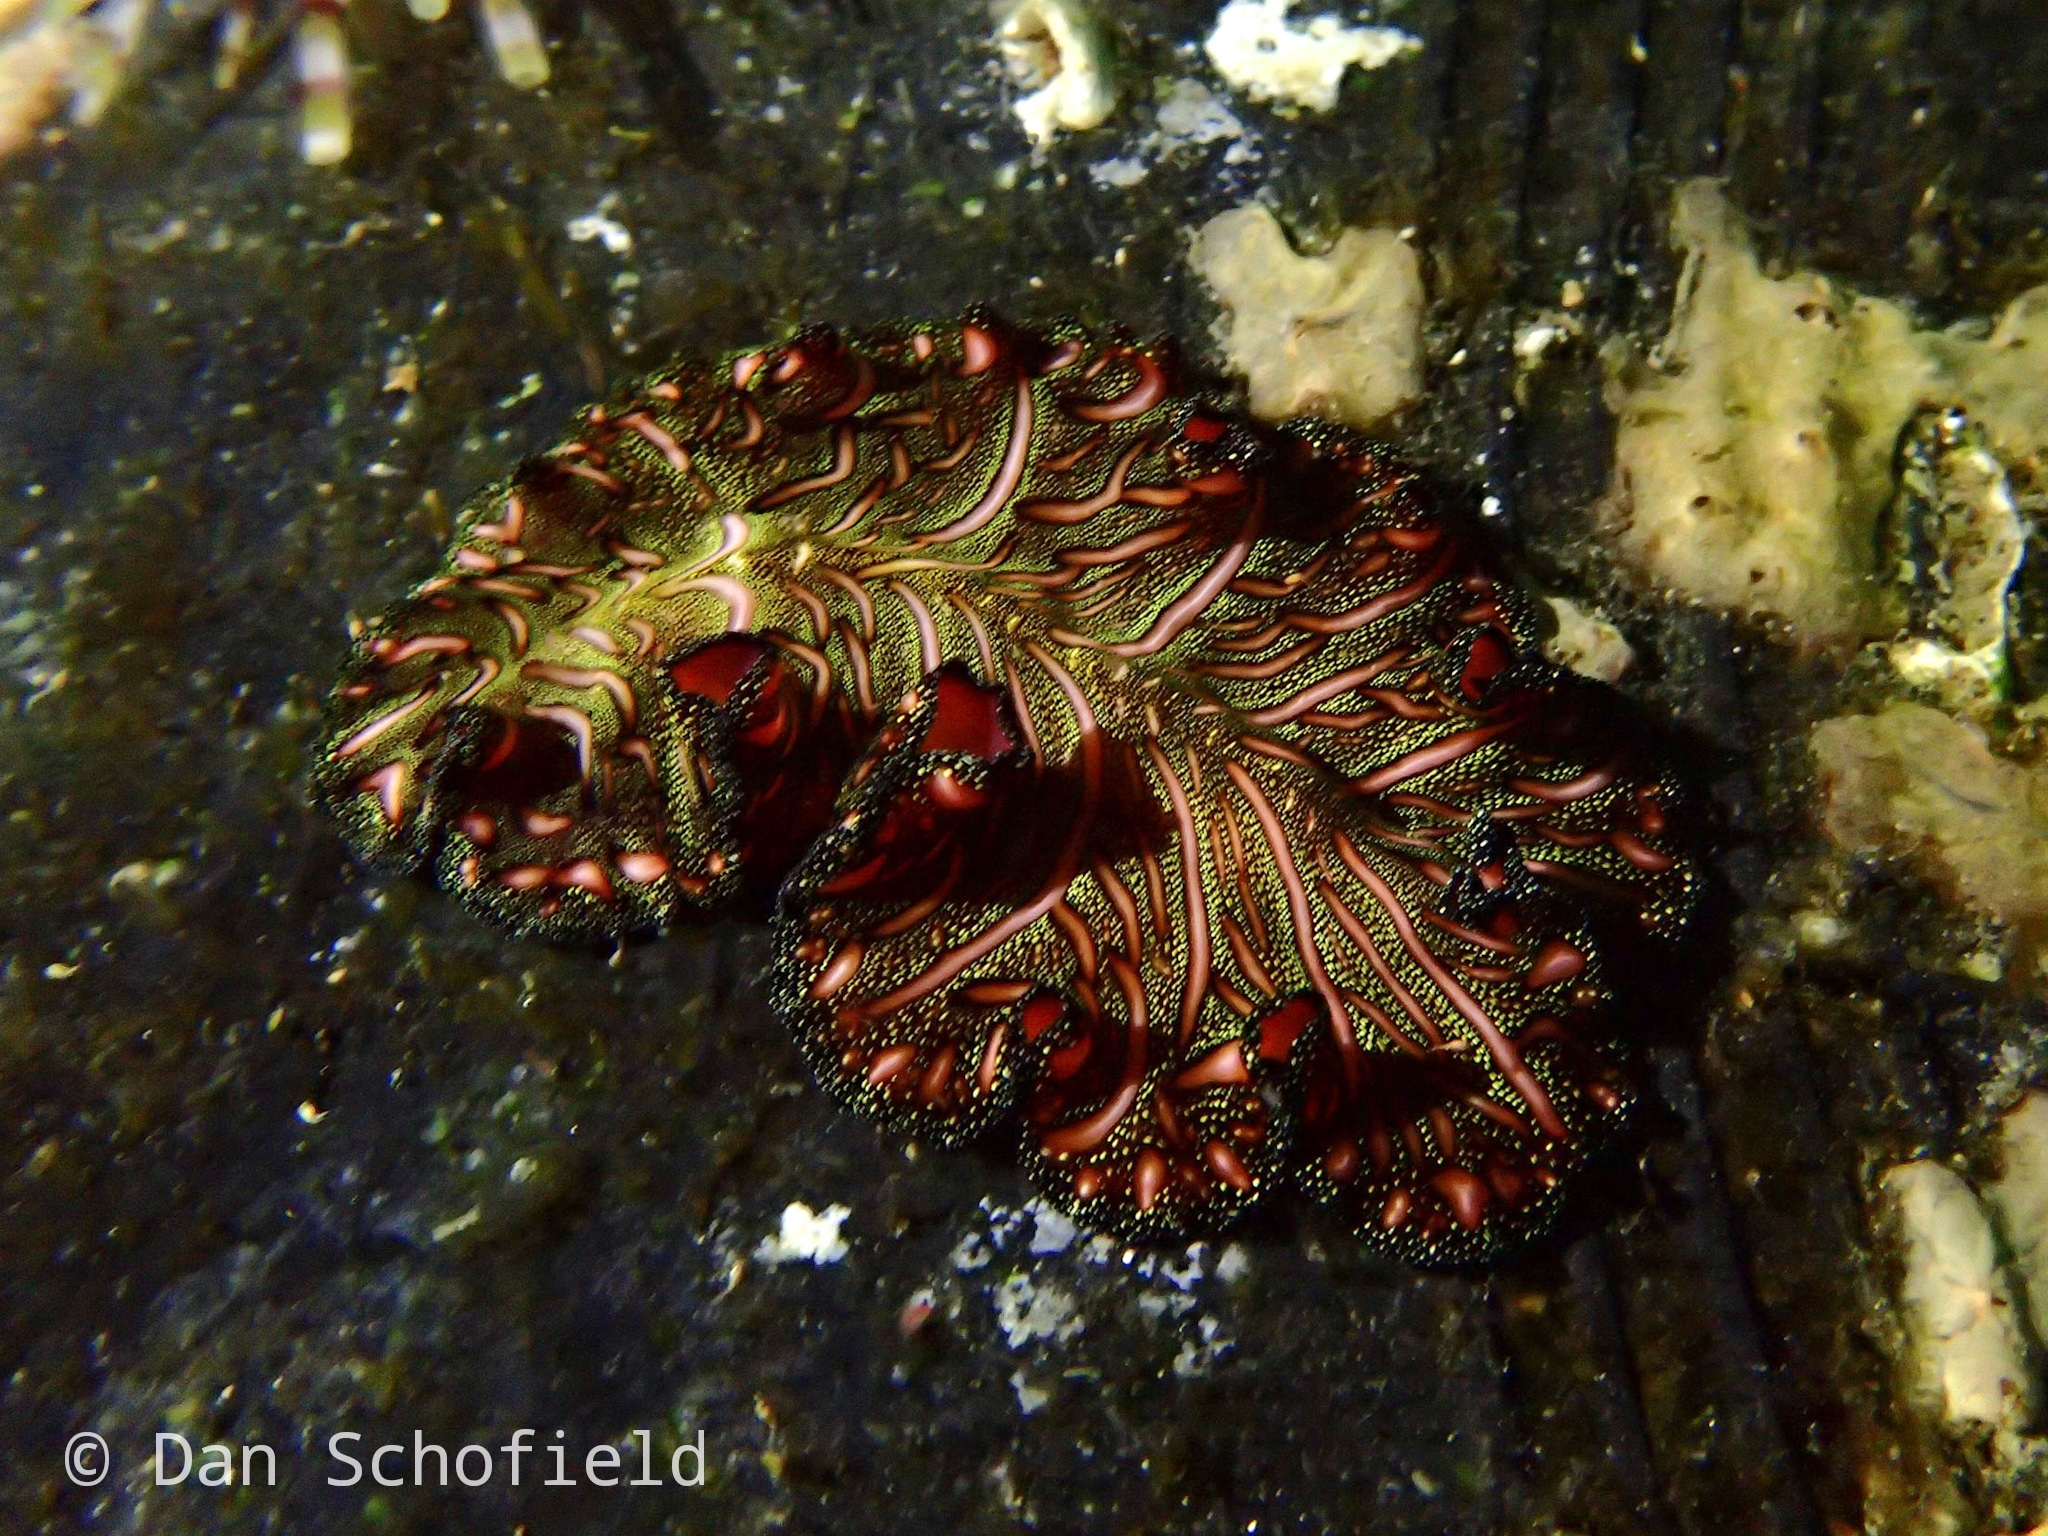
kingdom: Animalia
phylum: Platyhelminthes
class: Turbellaria
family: Pseudocerotidae
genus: Pseudobiceros
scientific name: Pseudobiceros bedfordi
